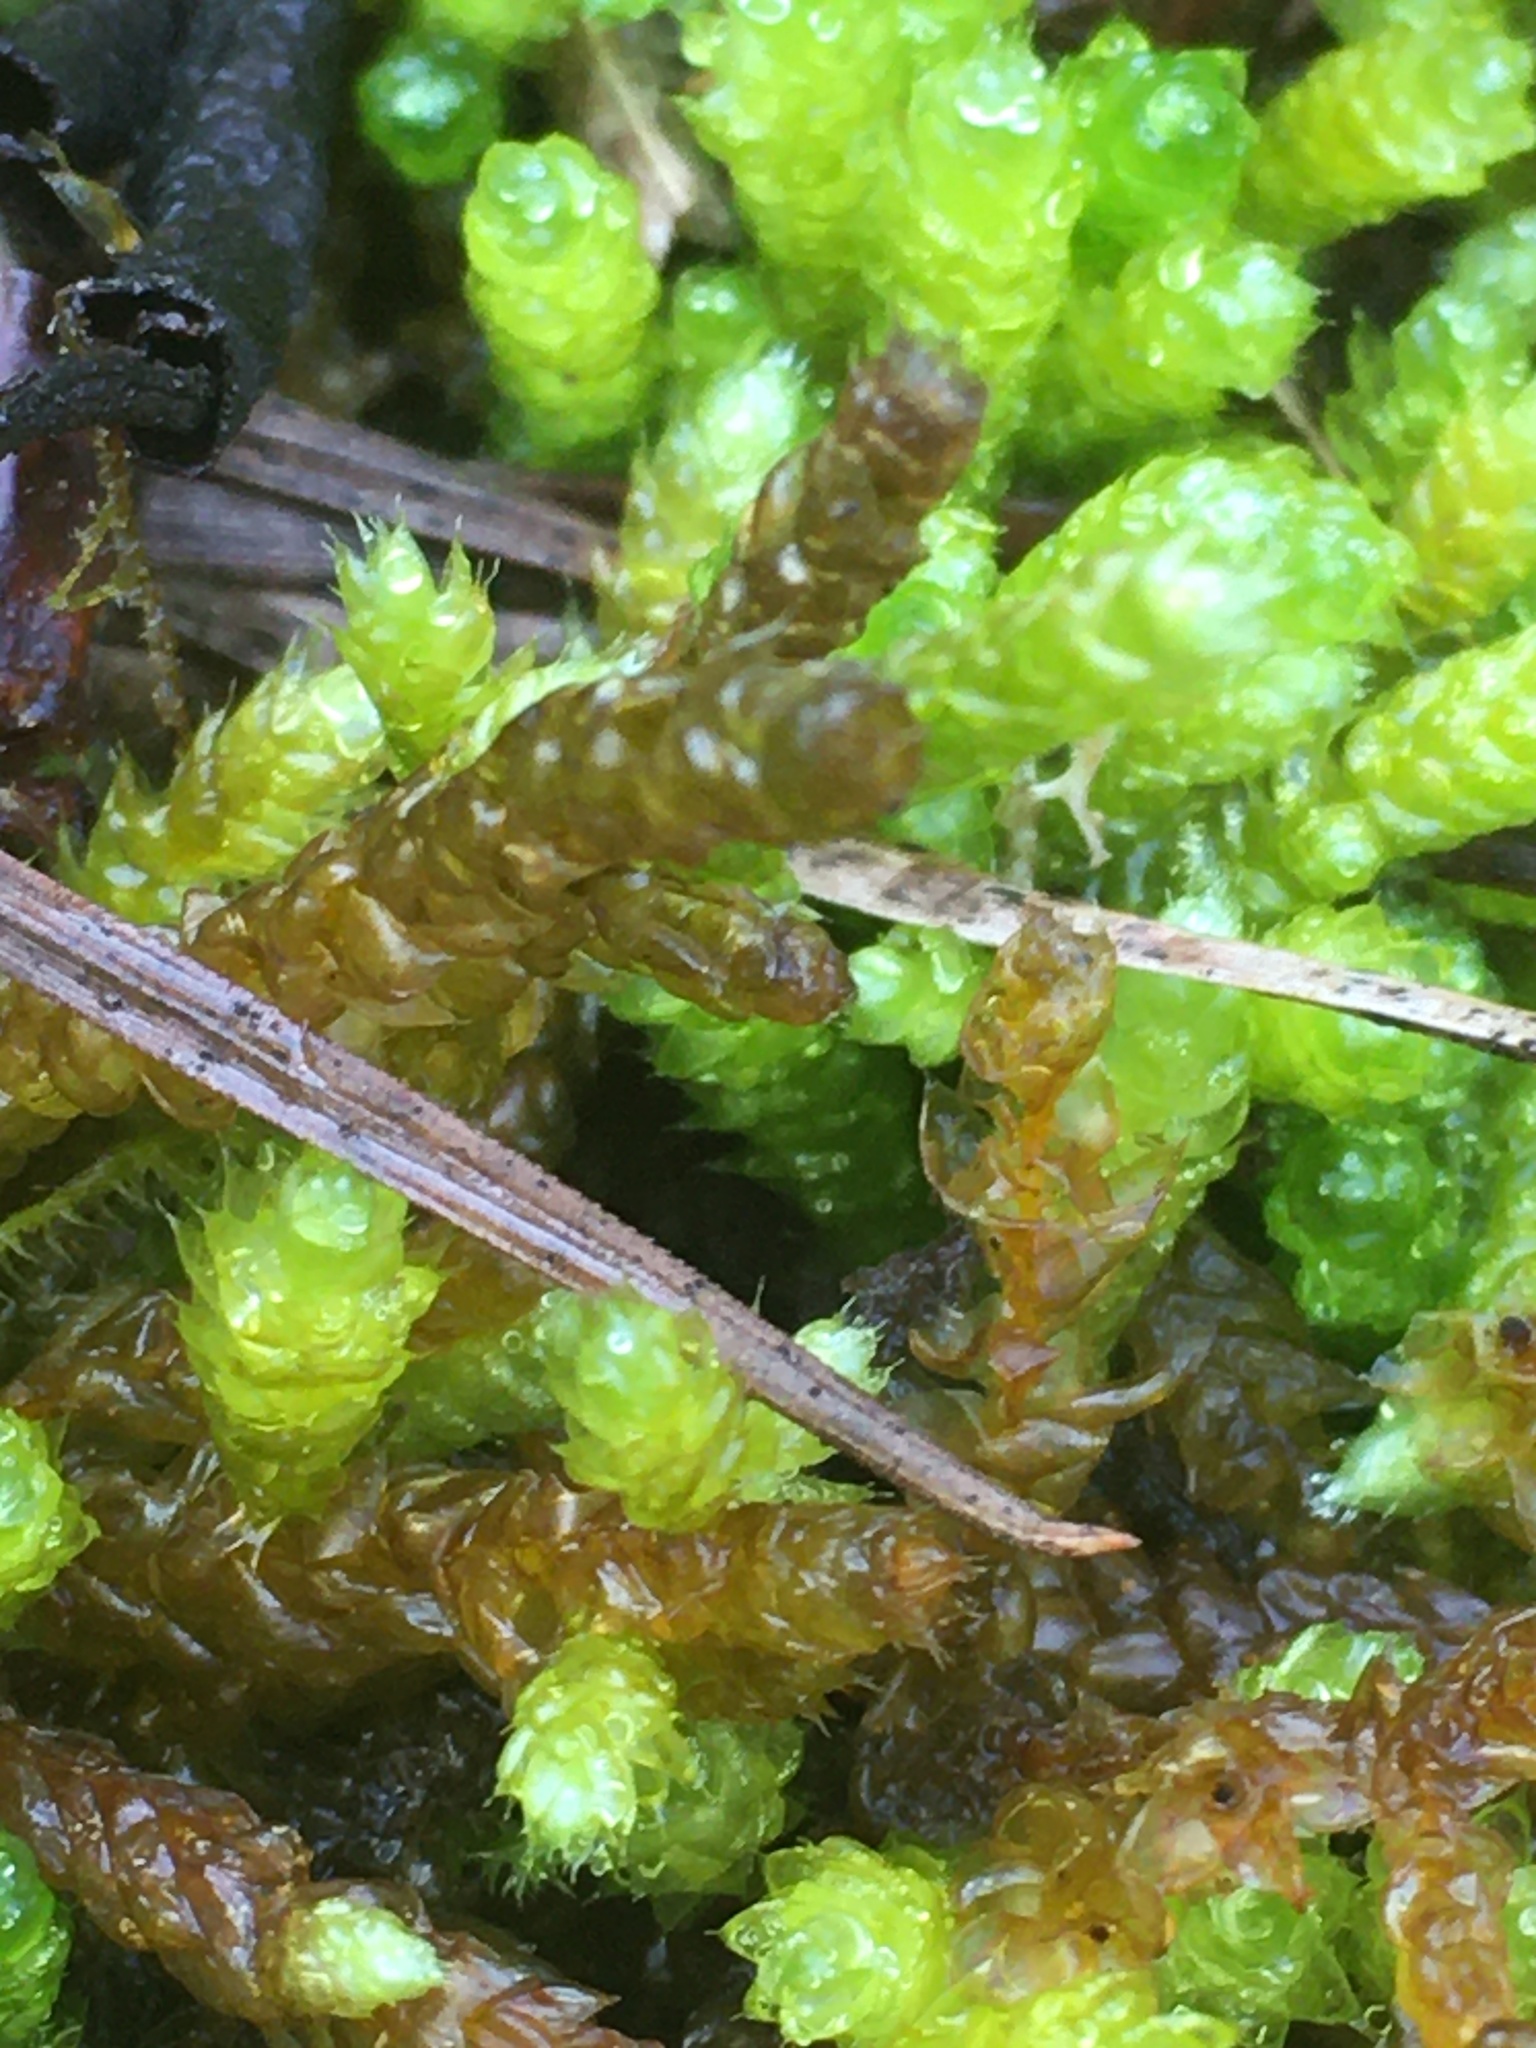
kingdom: Plantae
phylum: Bryophyta
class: Bryopsida
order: Hypnales
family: Brachytheciaceae
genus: Bryoandersonia
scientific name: Bryoandersonia illecebra
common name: Spoon-leaved moss
